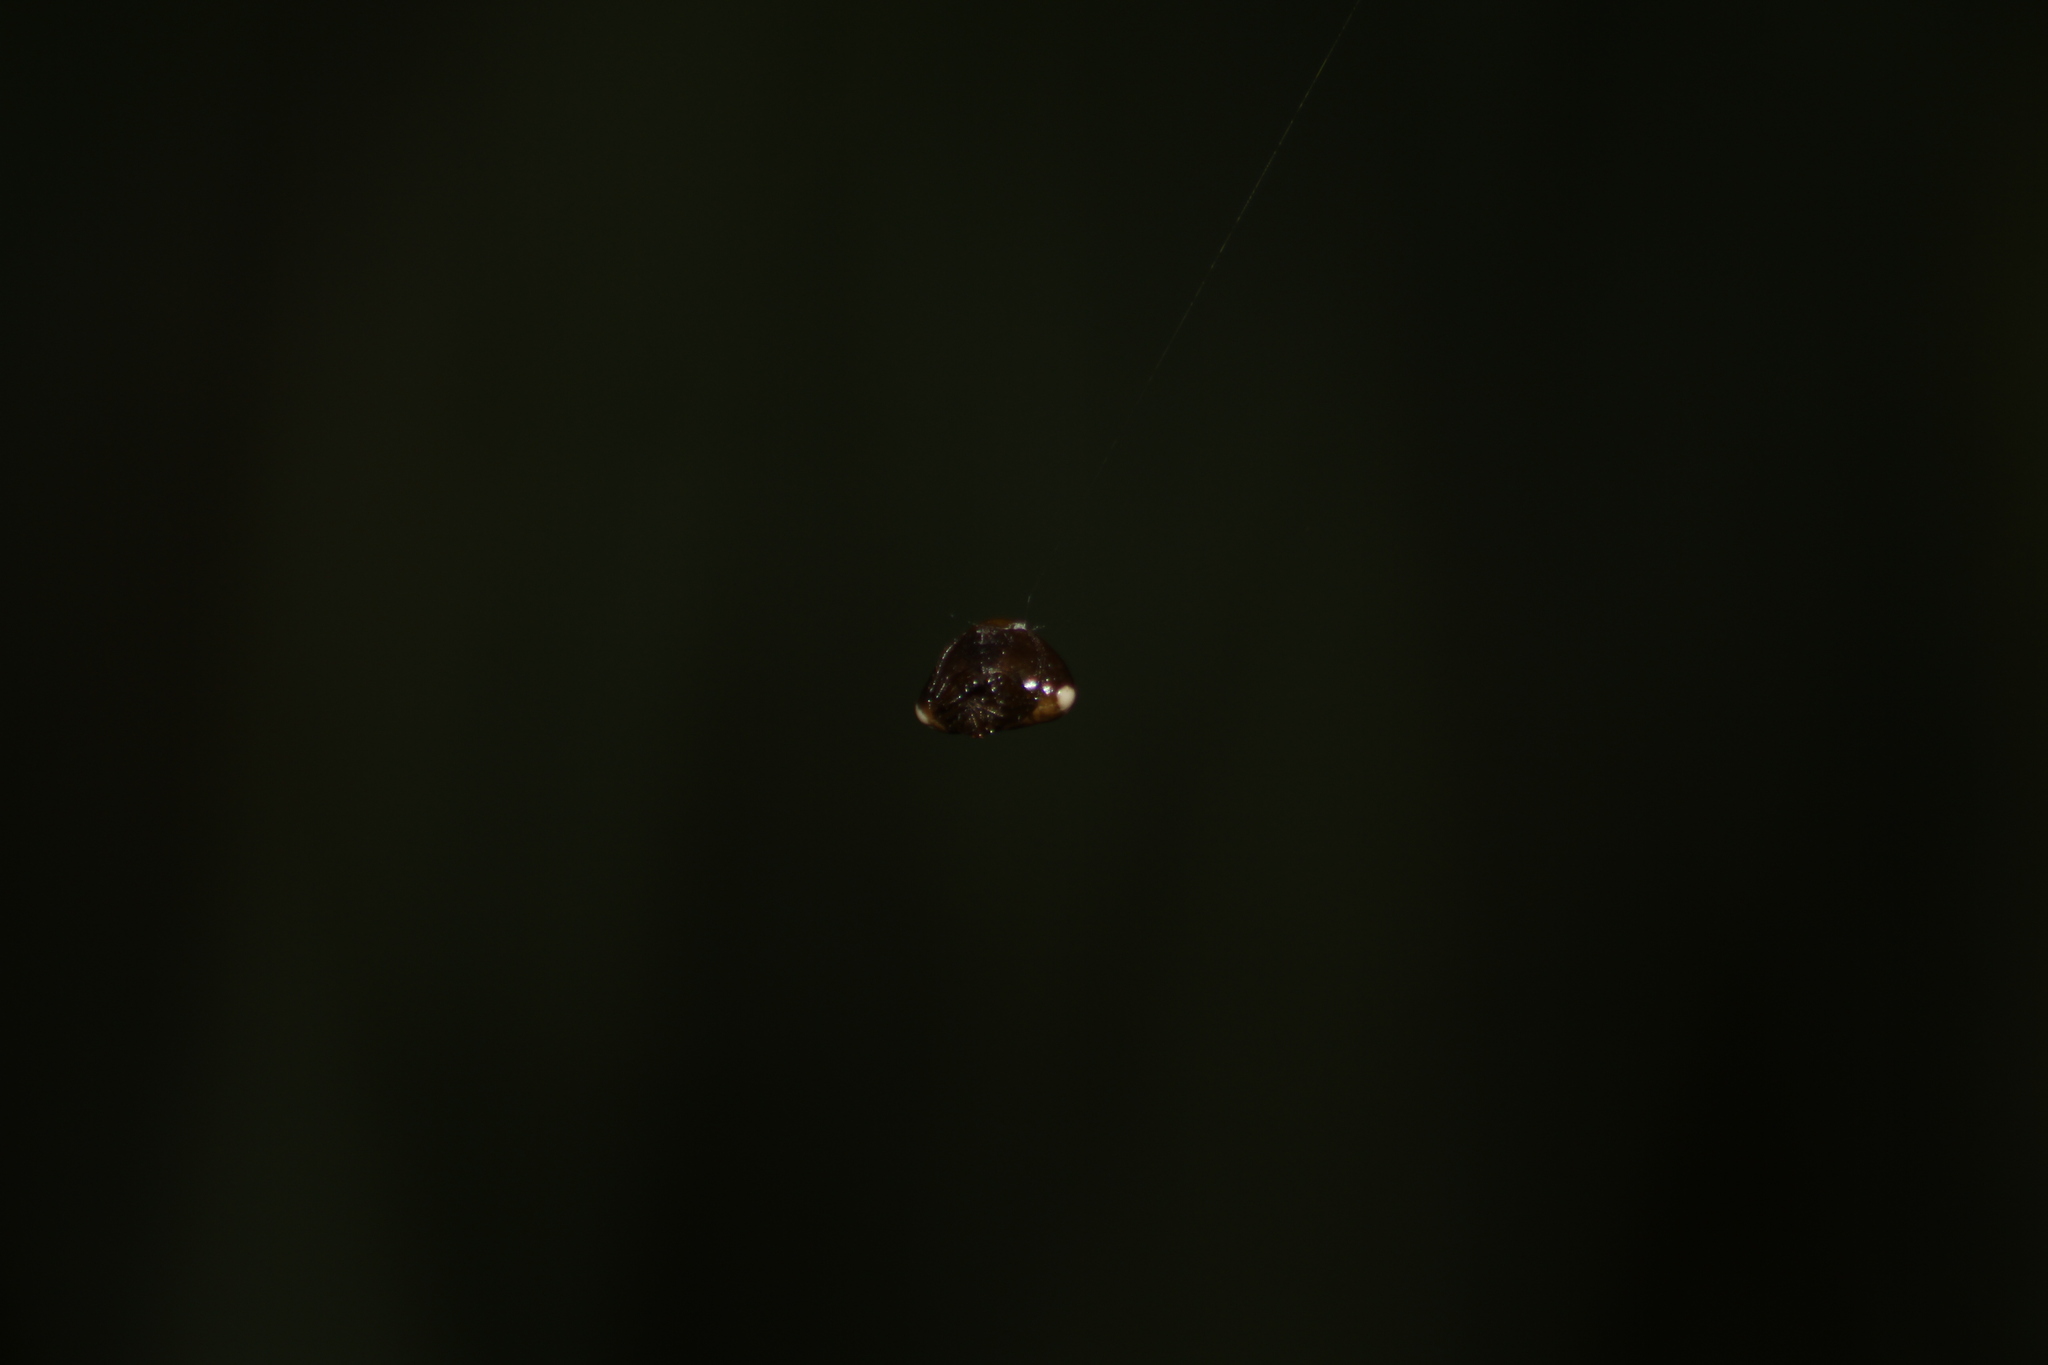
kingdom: Animalia
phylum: Arthropoda
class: Arachnida
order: Araneae
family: Araneidae
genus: Cyrtarachne
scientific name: Cyrtarachne ixoides
